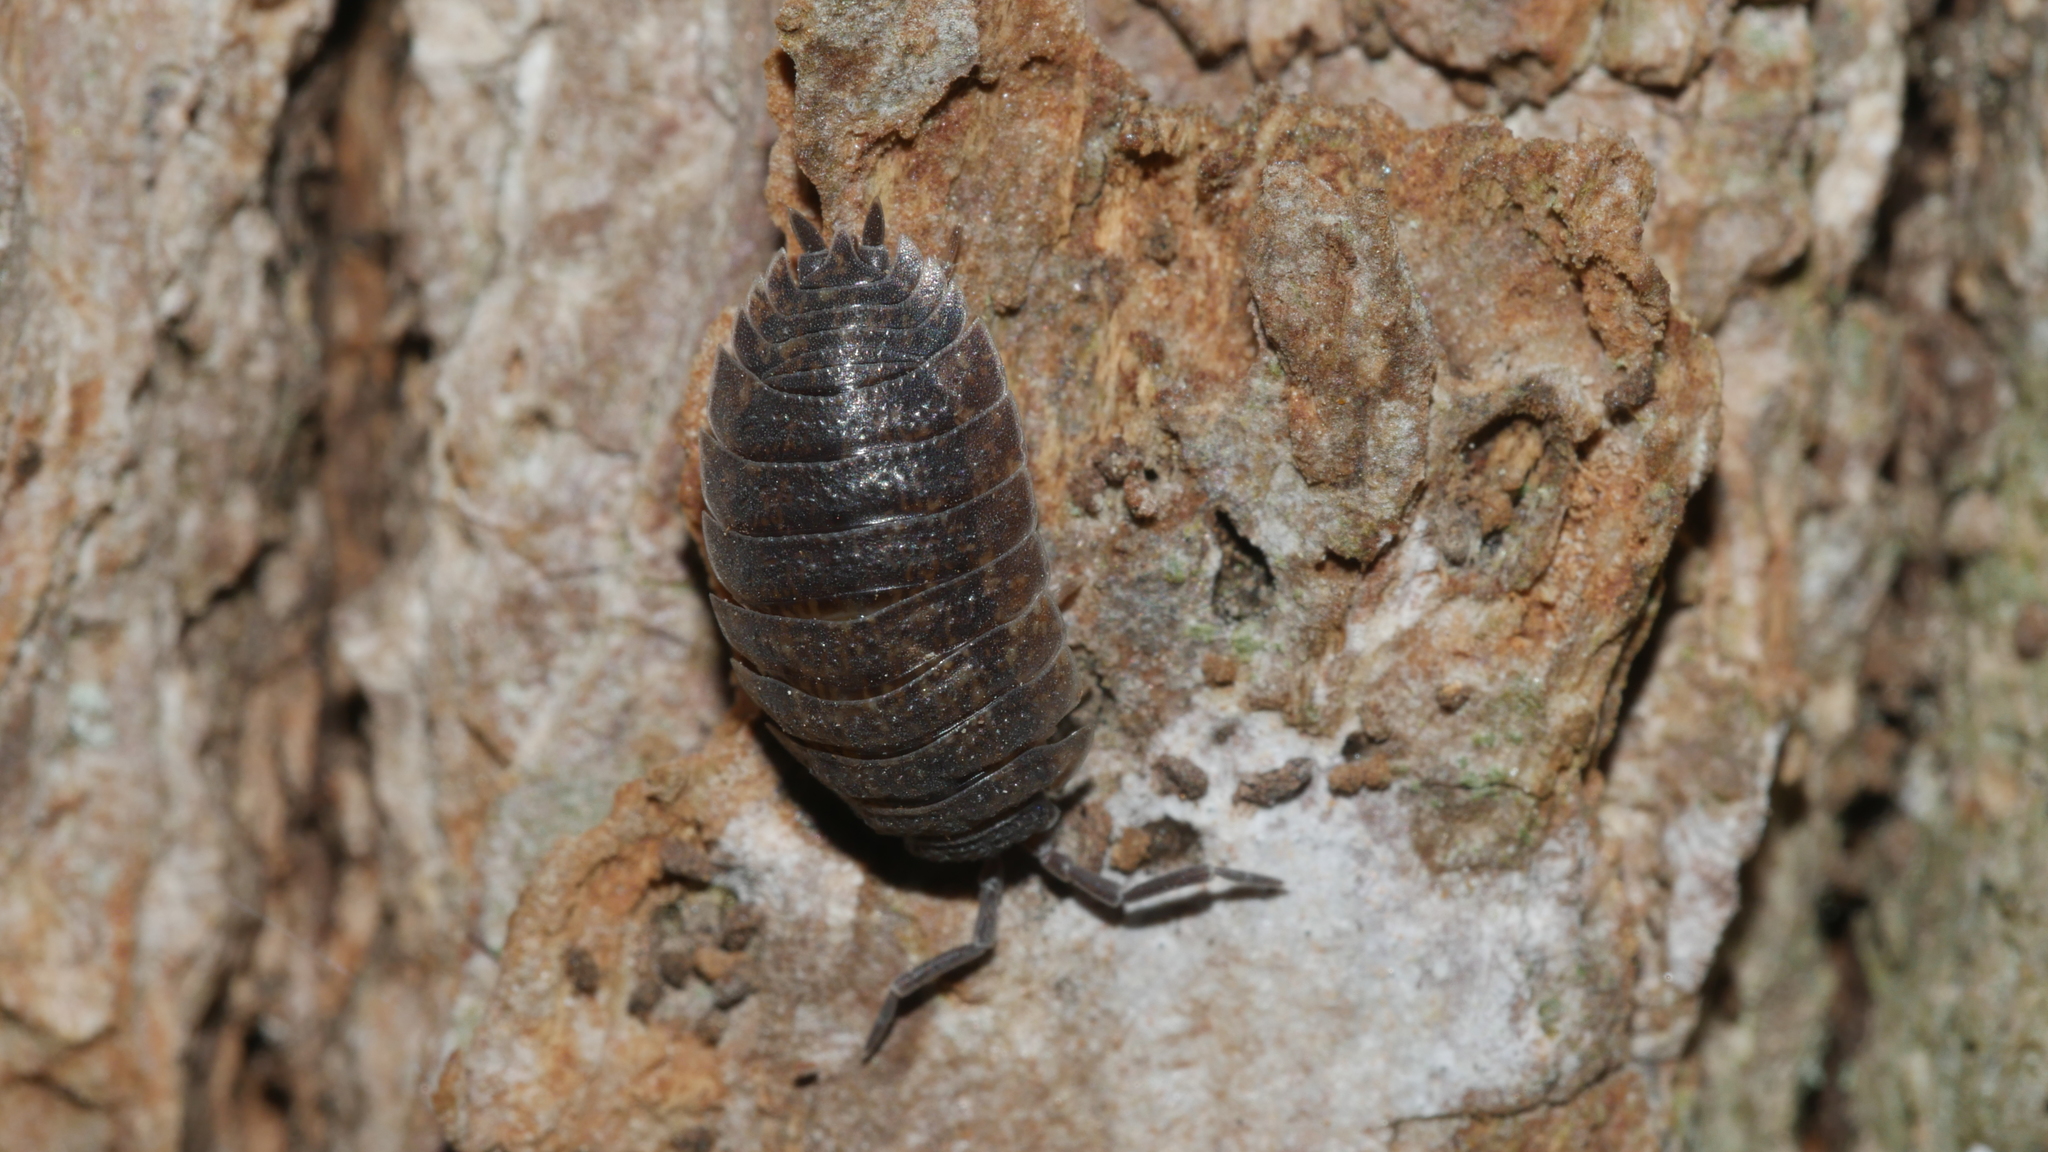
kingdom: Animalia
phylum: Arthropoda
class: Malacostraca
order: Isopoda
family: Porcellionidae
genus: Porcellio
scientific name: Porcellio scaber
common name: Common rough woodlouse
